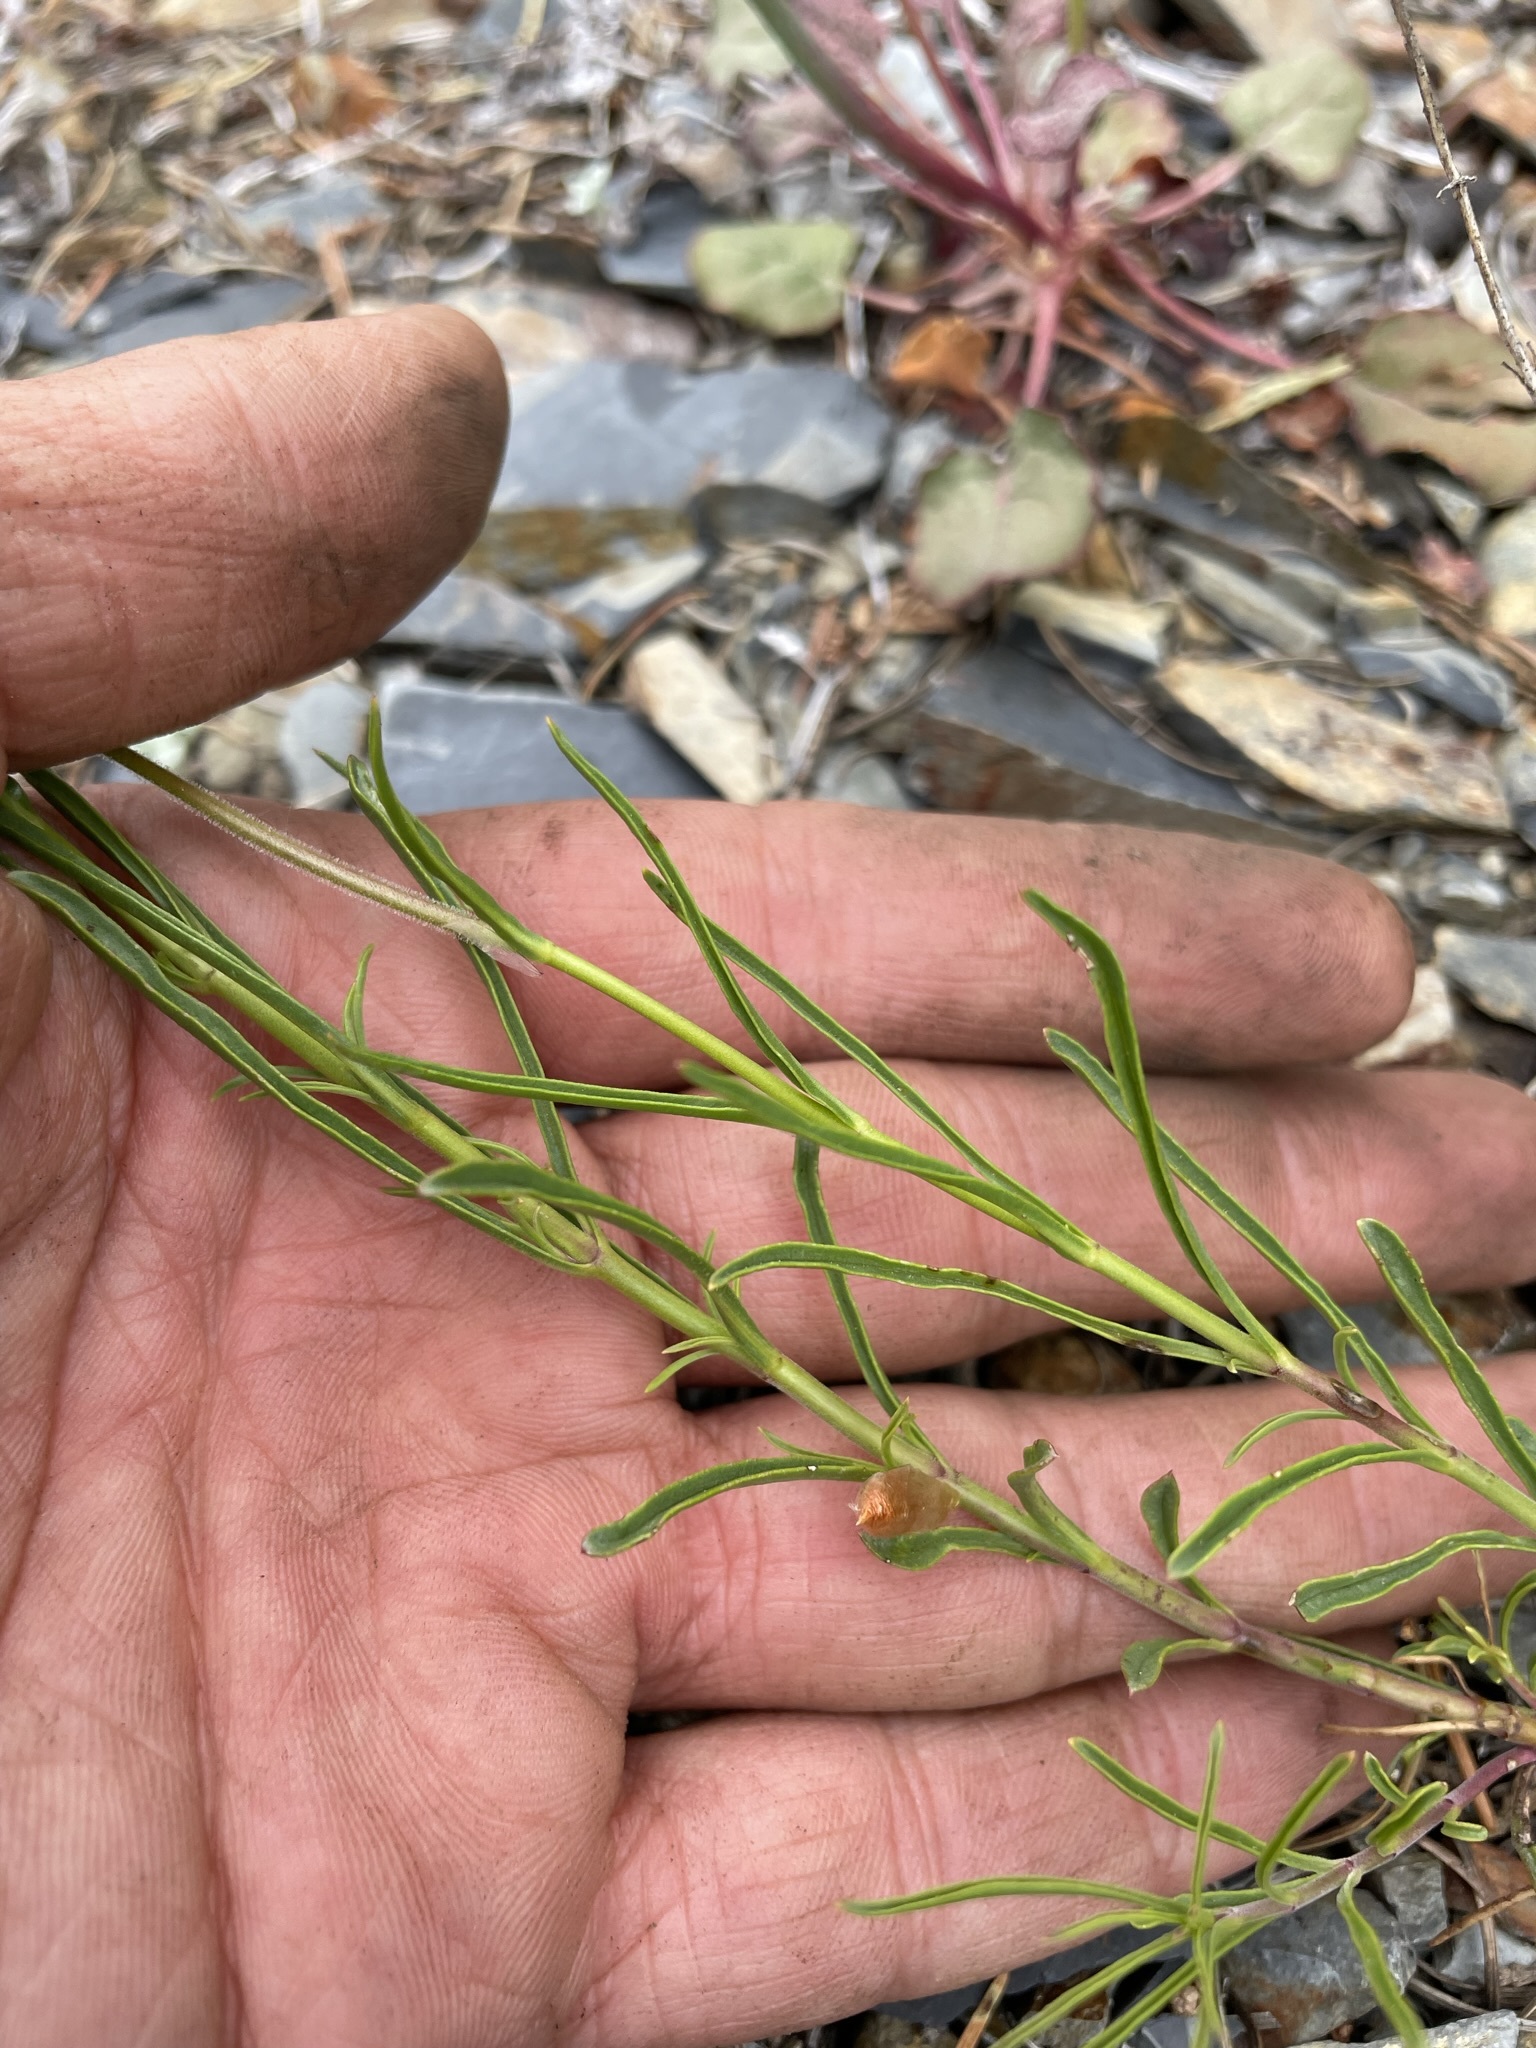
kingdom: Plantae
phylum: Tracheophyta
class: Magnoliopsida
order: Lamiales
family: Plantaginaceae
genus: Penstemon
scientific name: Penstemon filiformis
